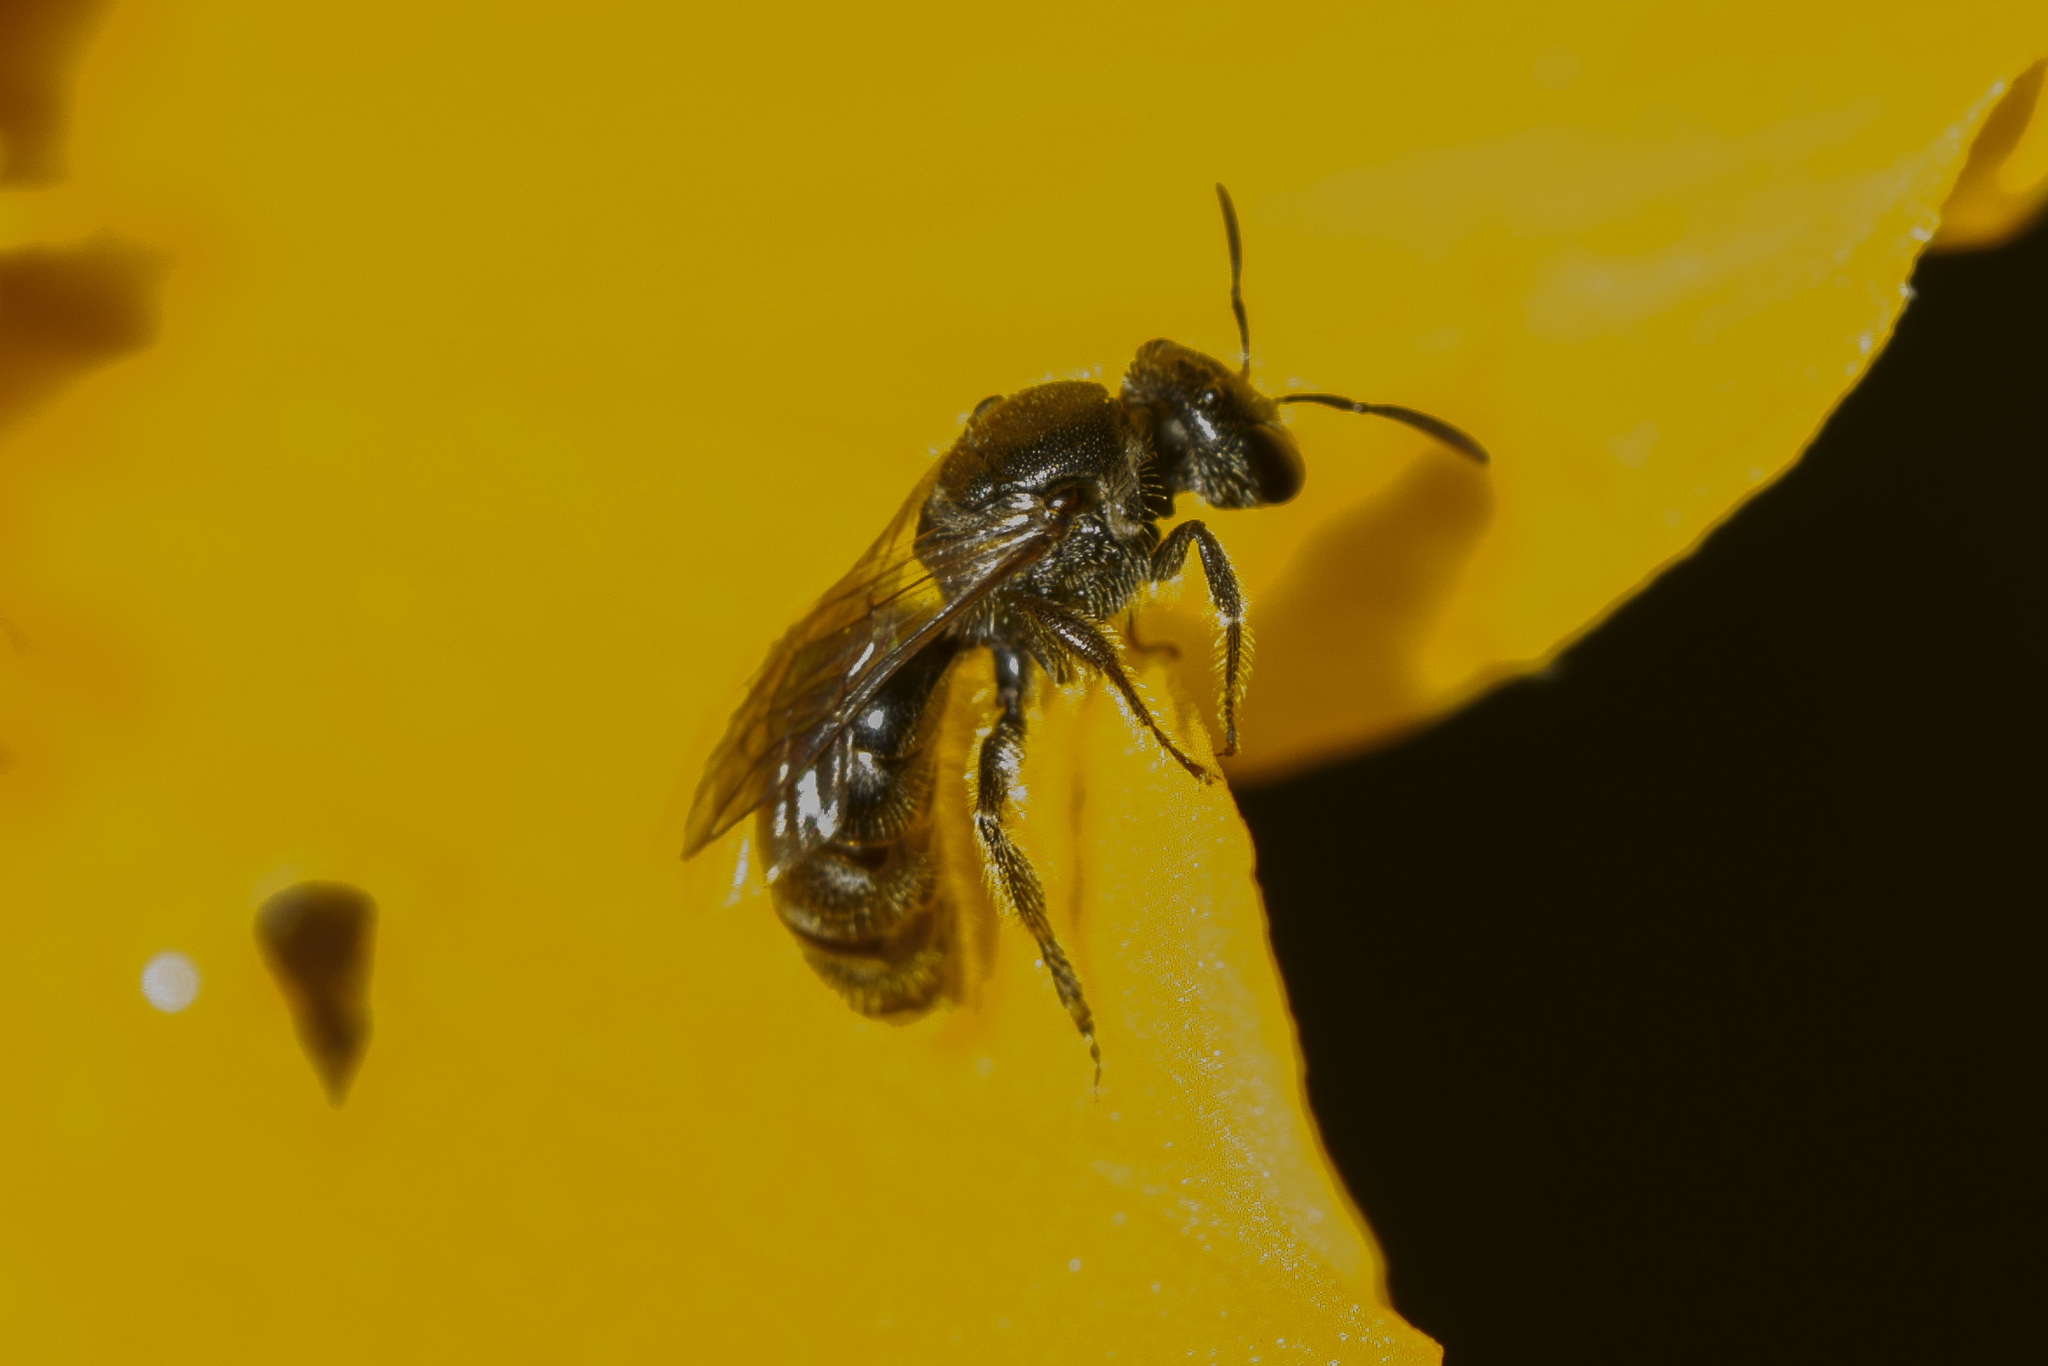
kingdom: Animalia
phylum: Arthropoda
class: Insecta
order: Hymenoptera
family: Halictidae
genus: Dialictus
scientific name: Dialictus
